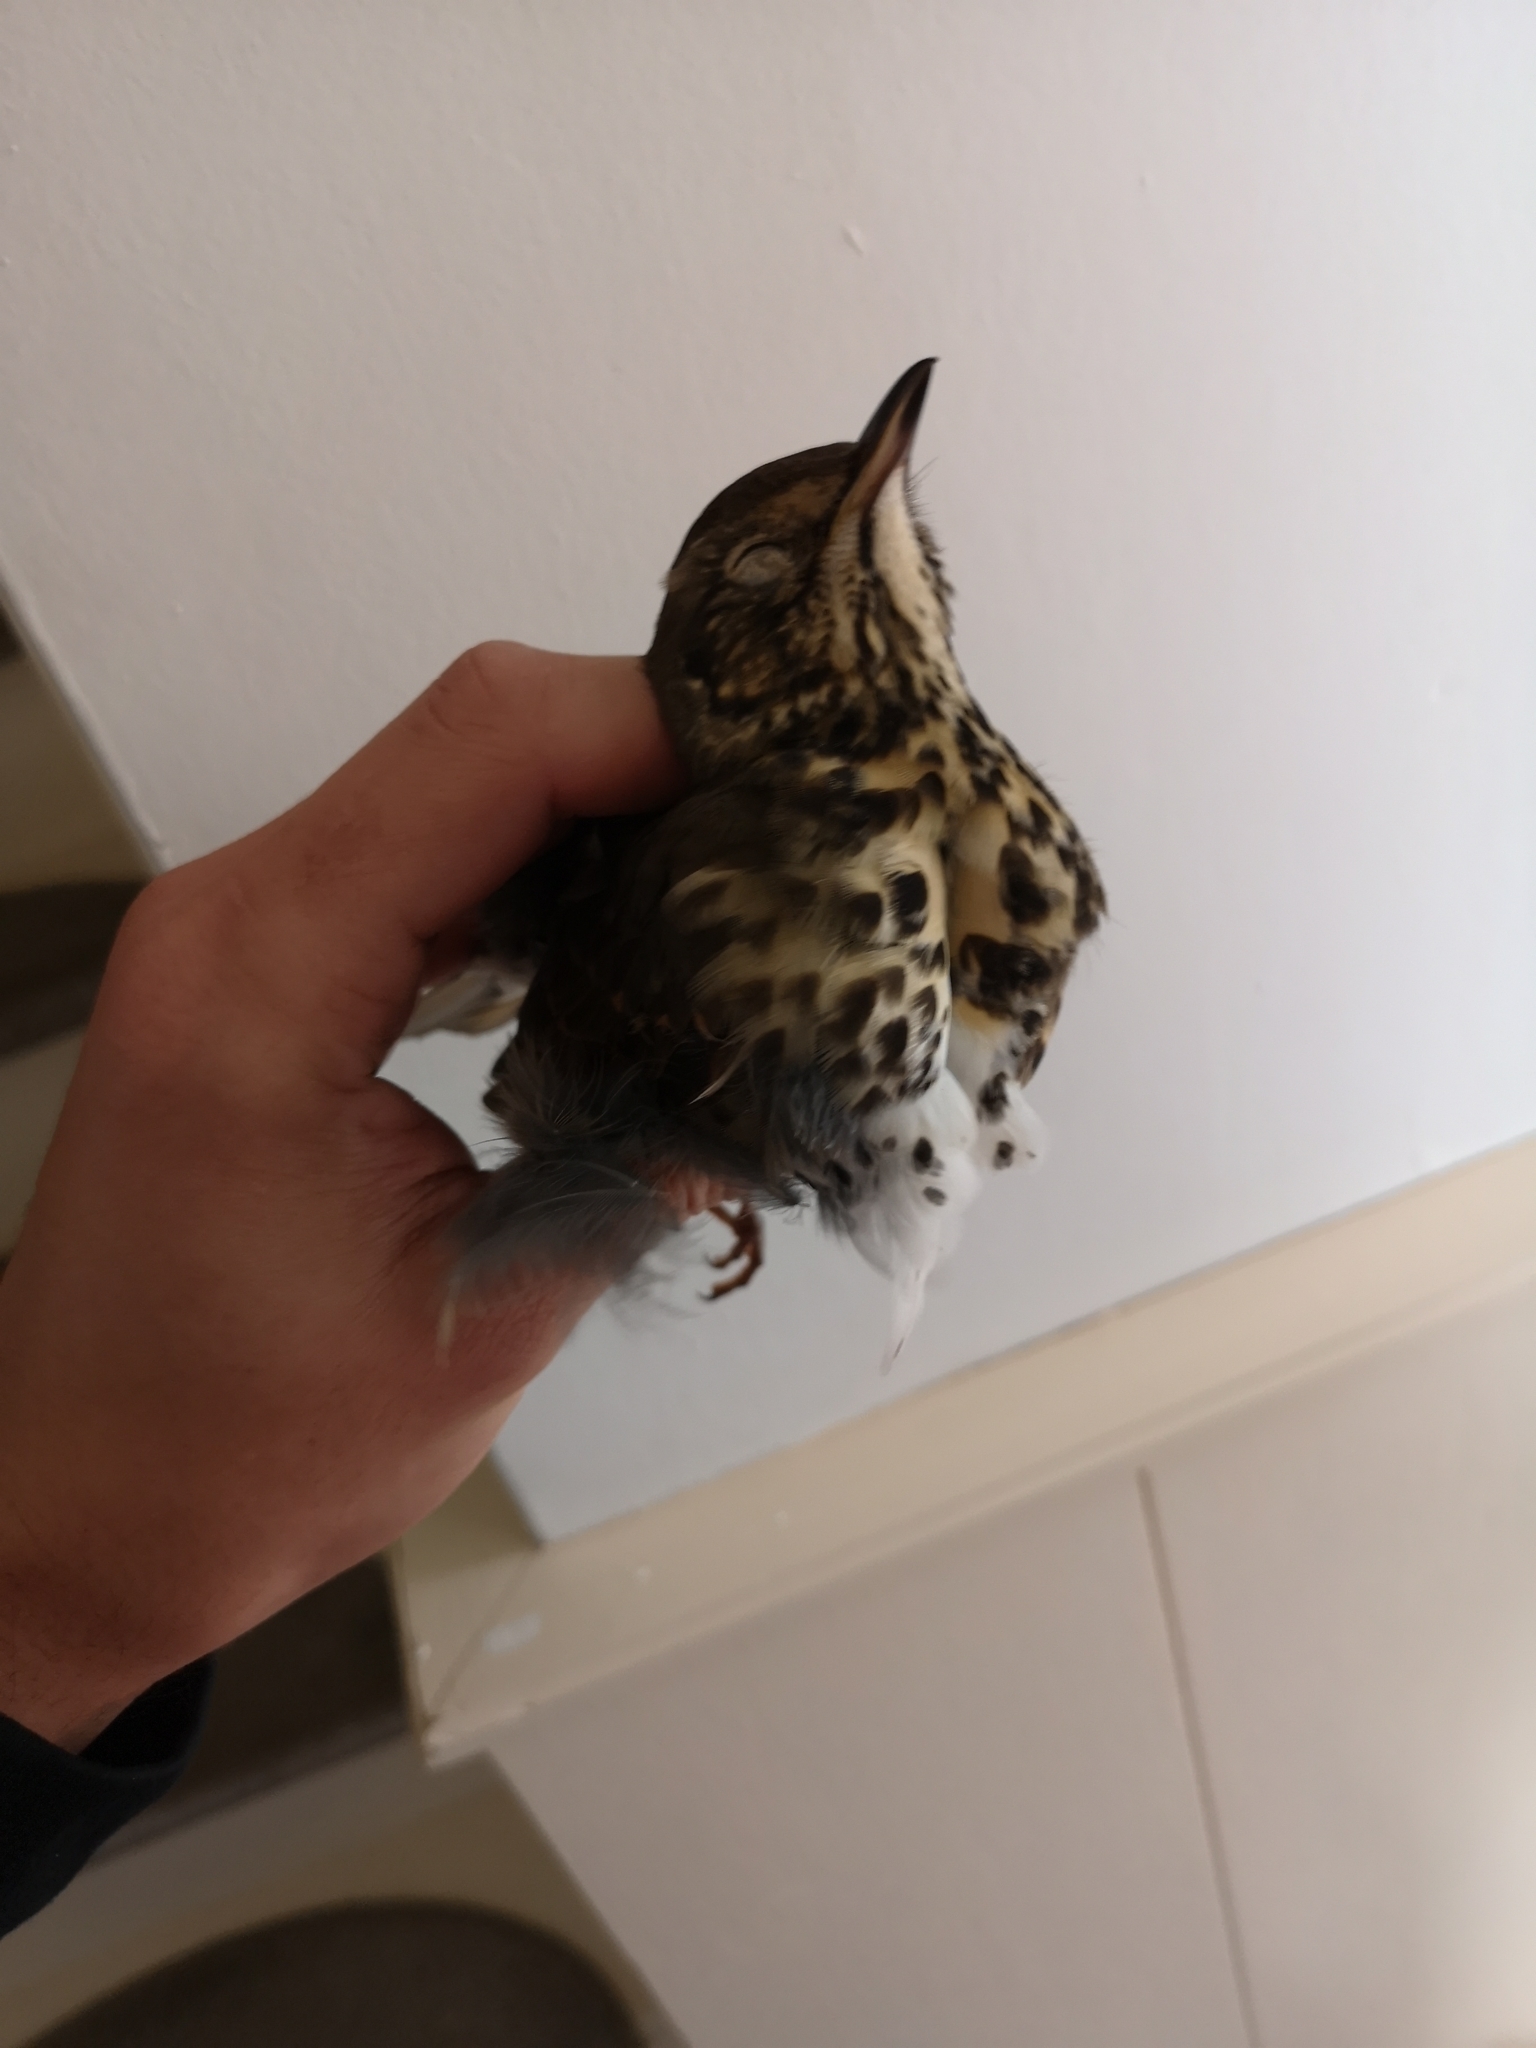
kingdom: Animalia
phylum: Chordata
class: Aves
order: Passeriformes
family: Turdidae
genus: Turdus
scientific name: Turdus philomelos
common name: Song thrush
